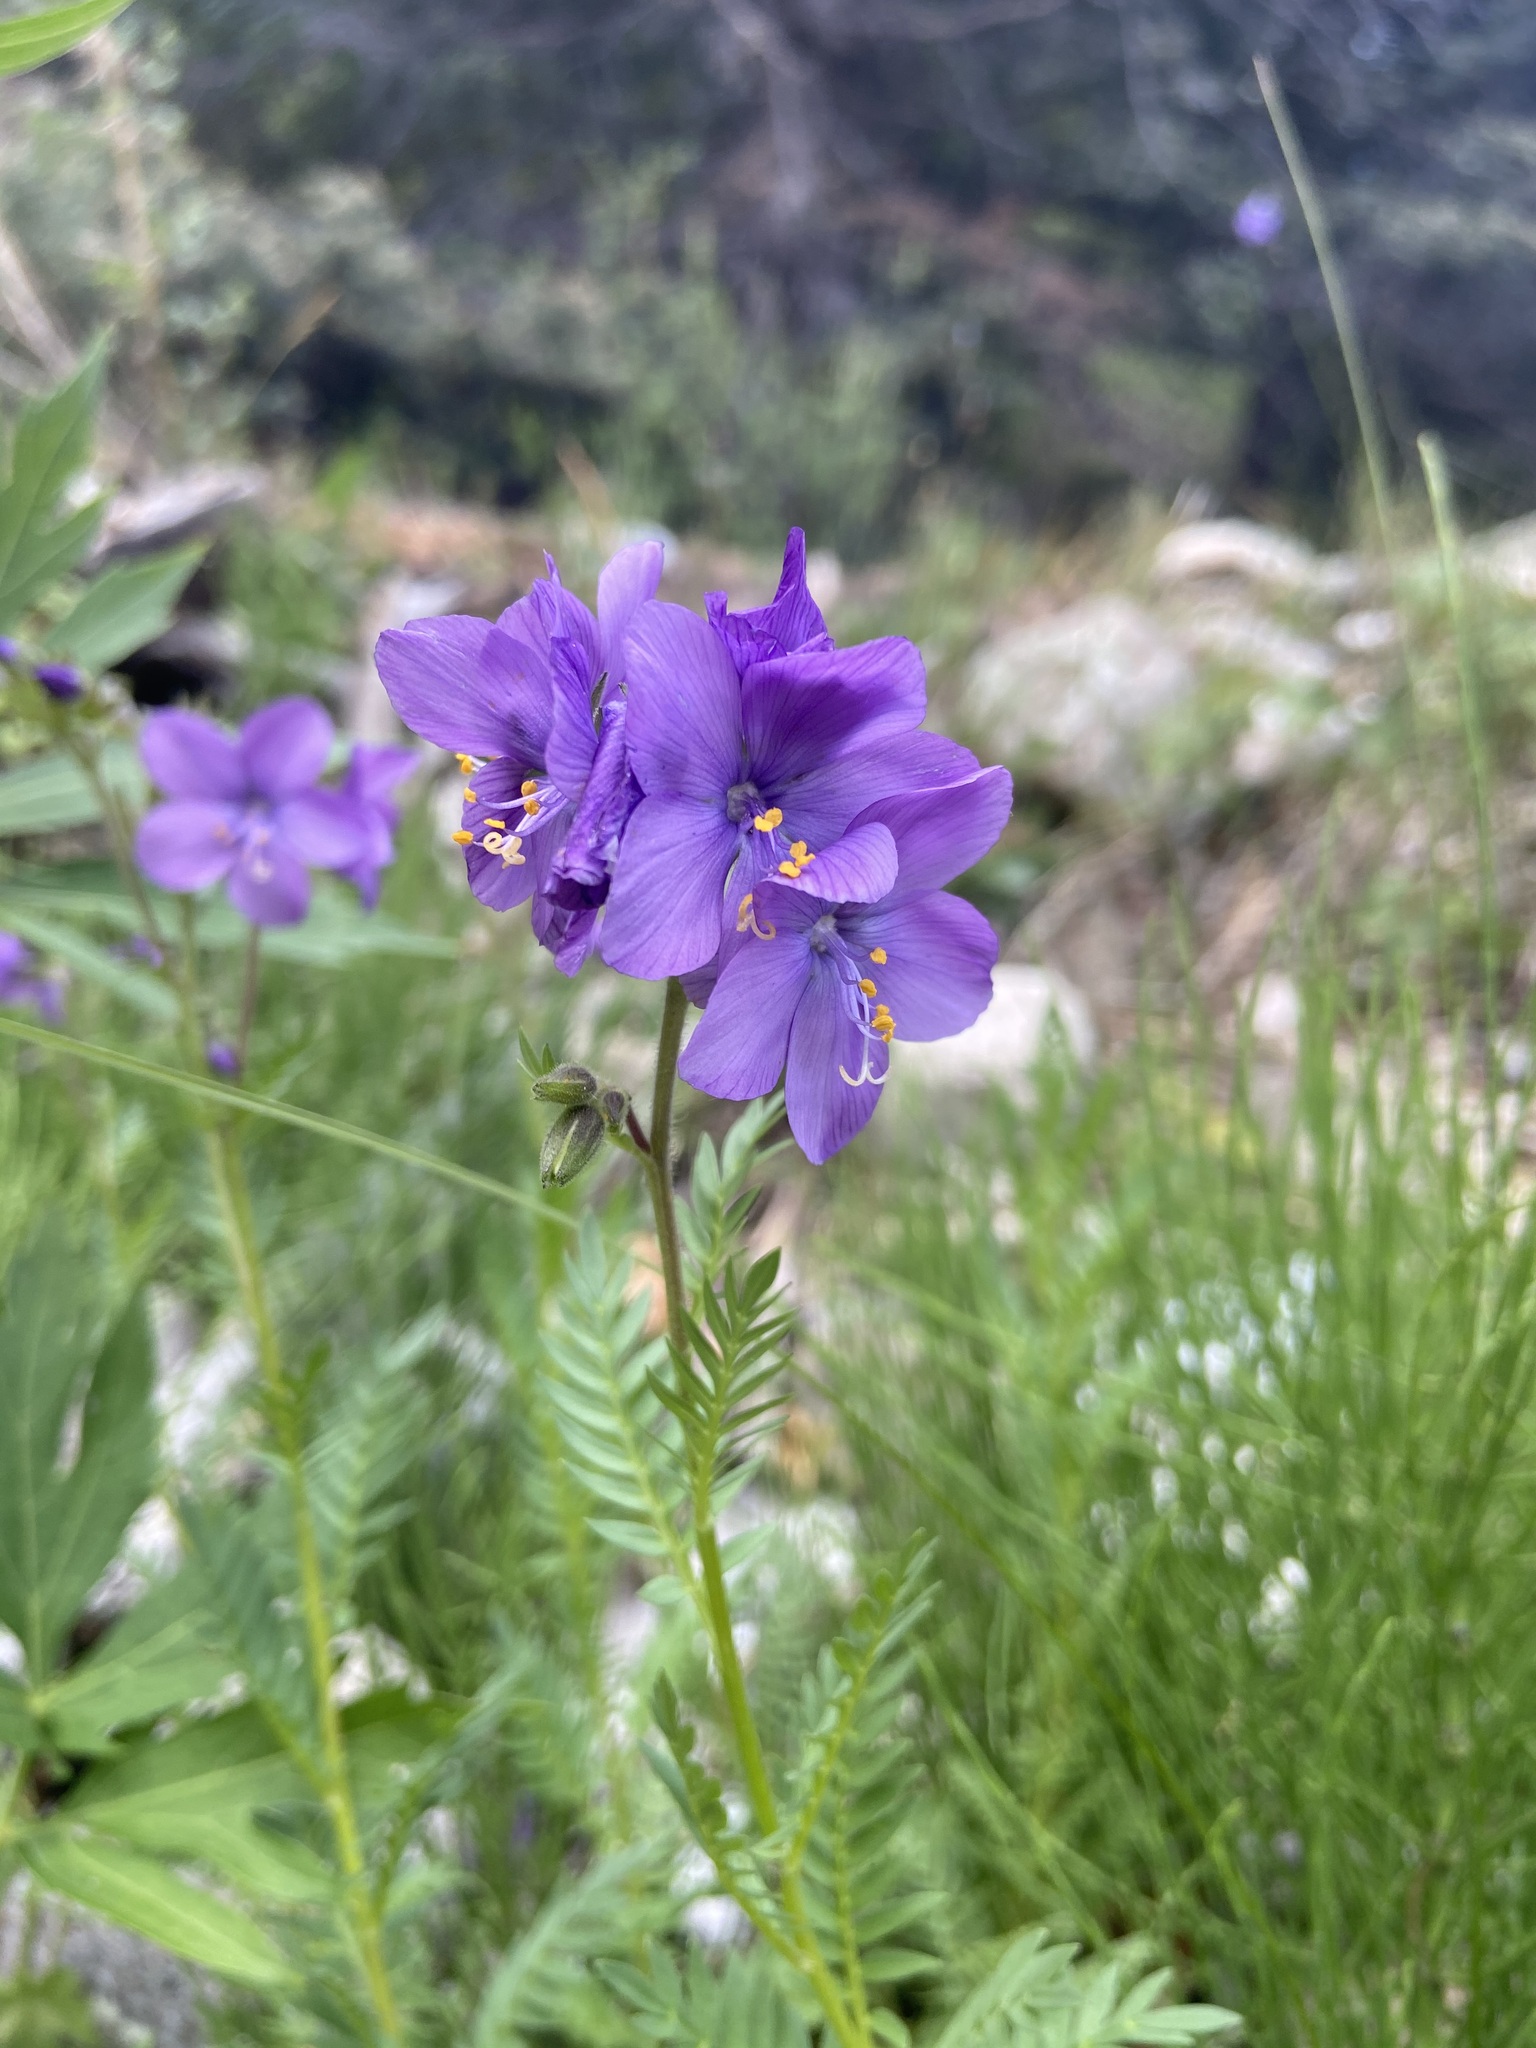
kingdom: Plantae
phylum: Tracheophyta
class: Magnoliopsida
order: Ericales
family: Polemoniaceae
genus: Polemonium
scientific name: Polemonium foliosissimum
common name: Leafy jacob's-ladder
